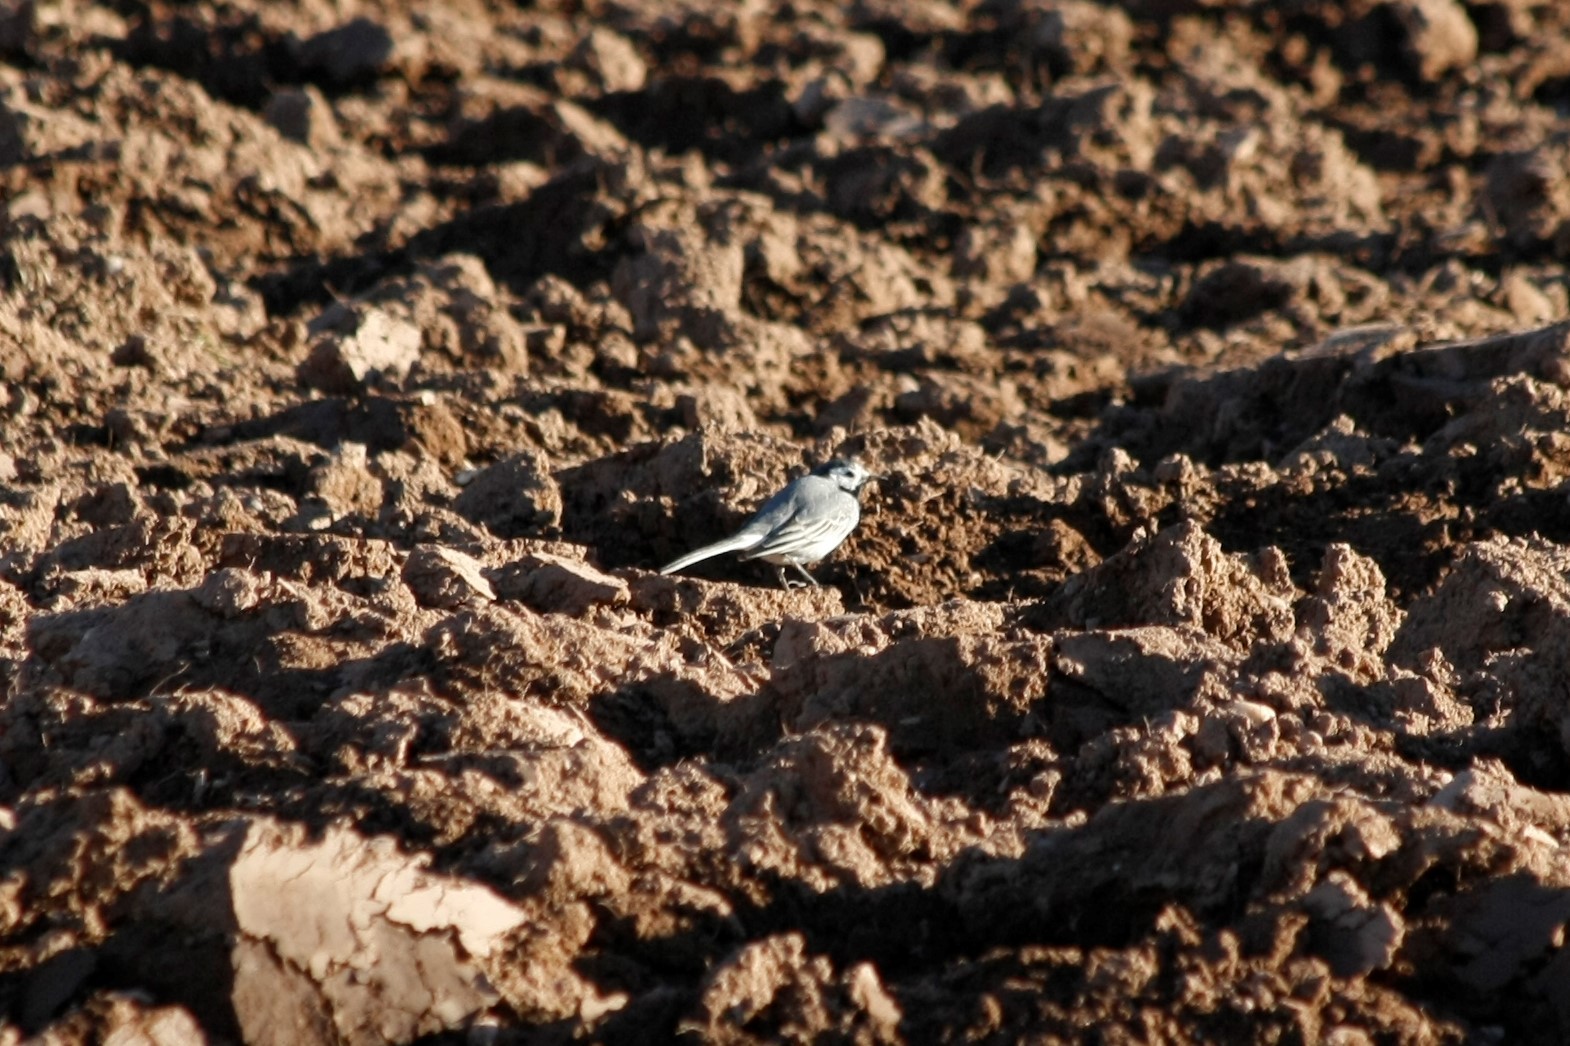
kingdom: Animalia
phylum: Chordata
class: Aves
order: Passeriformes
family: Motacillidae
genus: Motacilla
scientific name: Motacilla alba
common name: White wagtail
